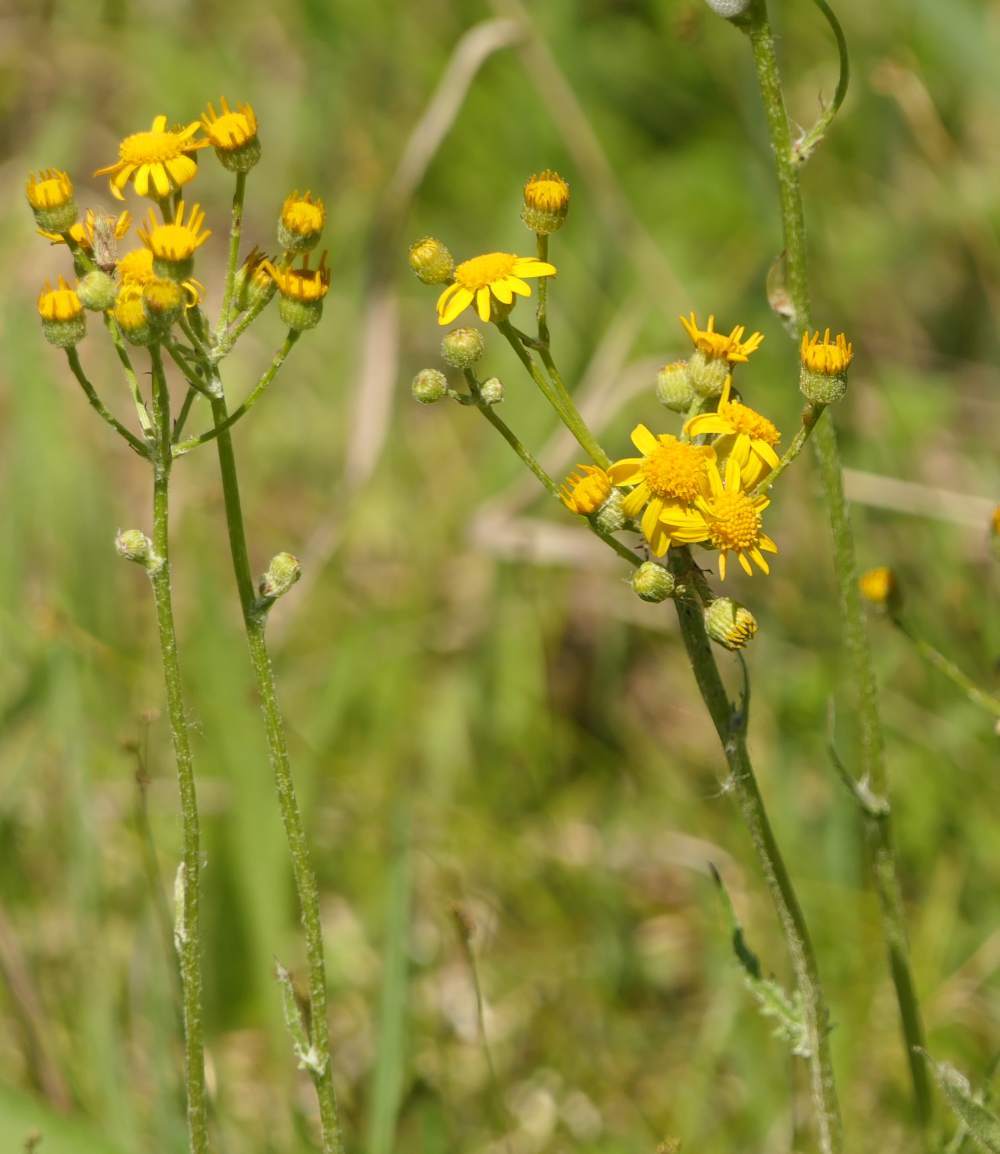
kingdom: Plantae
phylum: Tracheophyta
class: Magnoliopsida
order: Asterales
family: Asteraceae
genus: Packera
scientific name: Packera paupercula
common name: Balsam groundsel
